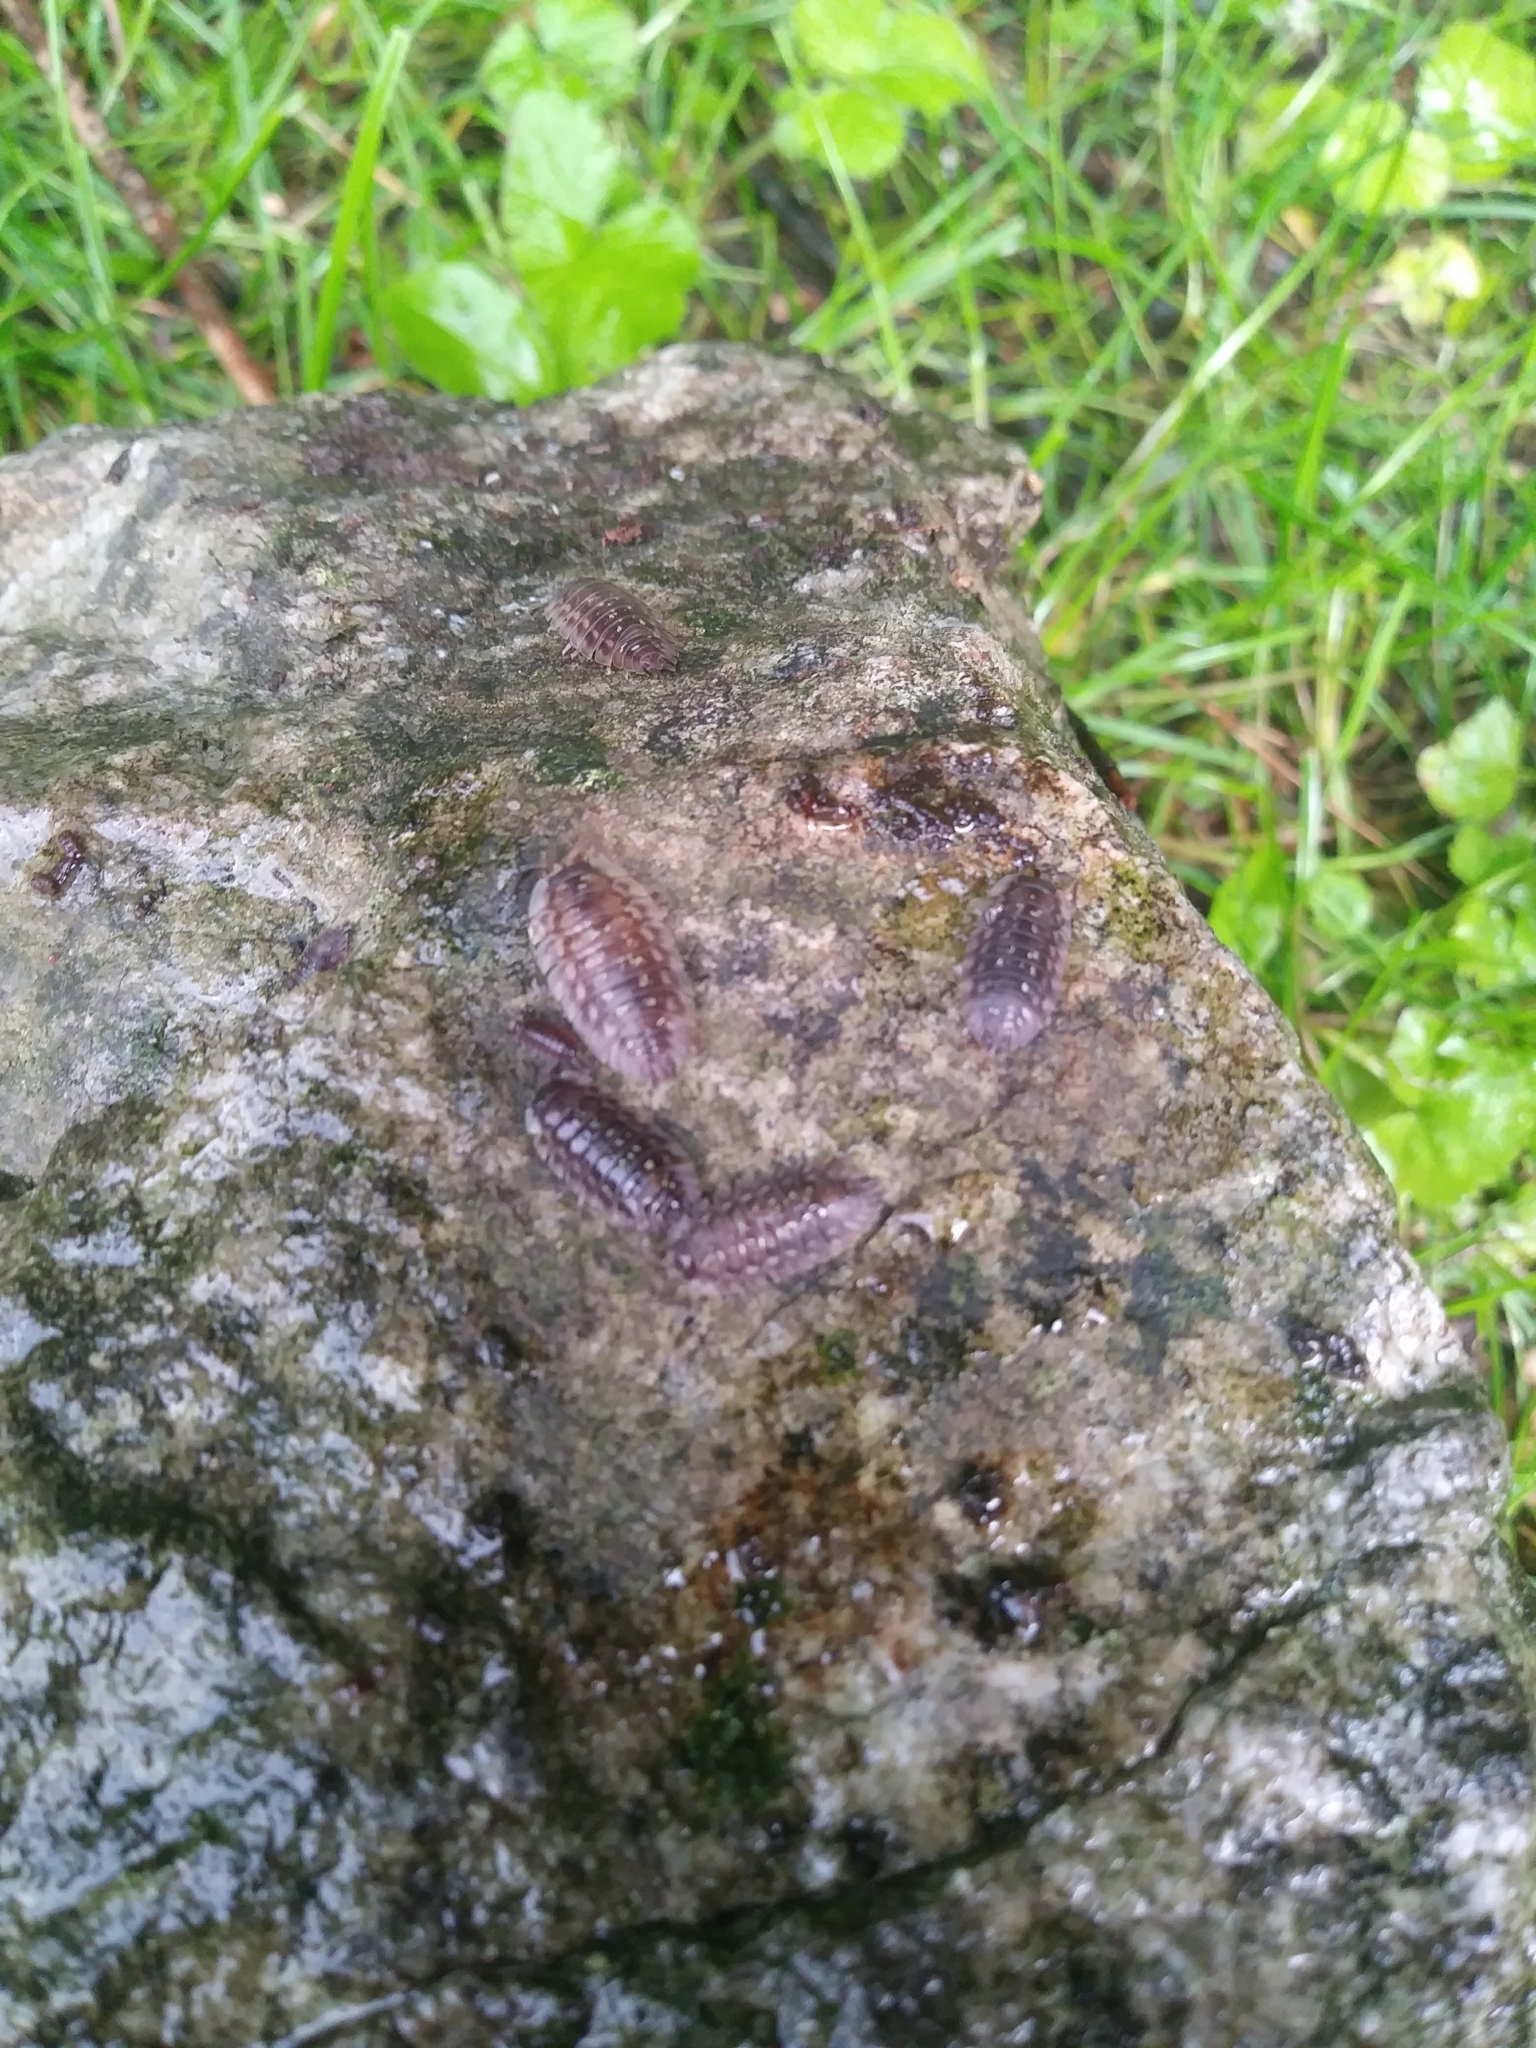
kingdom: Animalia
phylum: Arthropoda
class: Malacostraca
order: Isopoda
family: Oniscidae
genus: Oniscus
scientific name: Oniscus asellus
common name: Common shiny woodlouse
